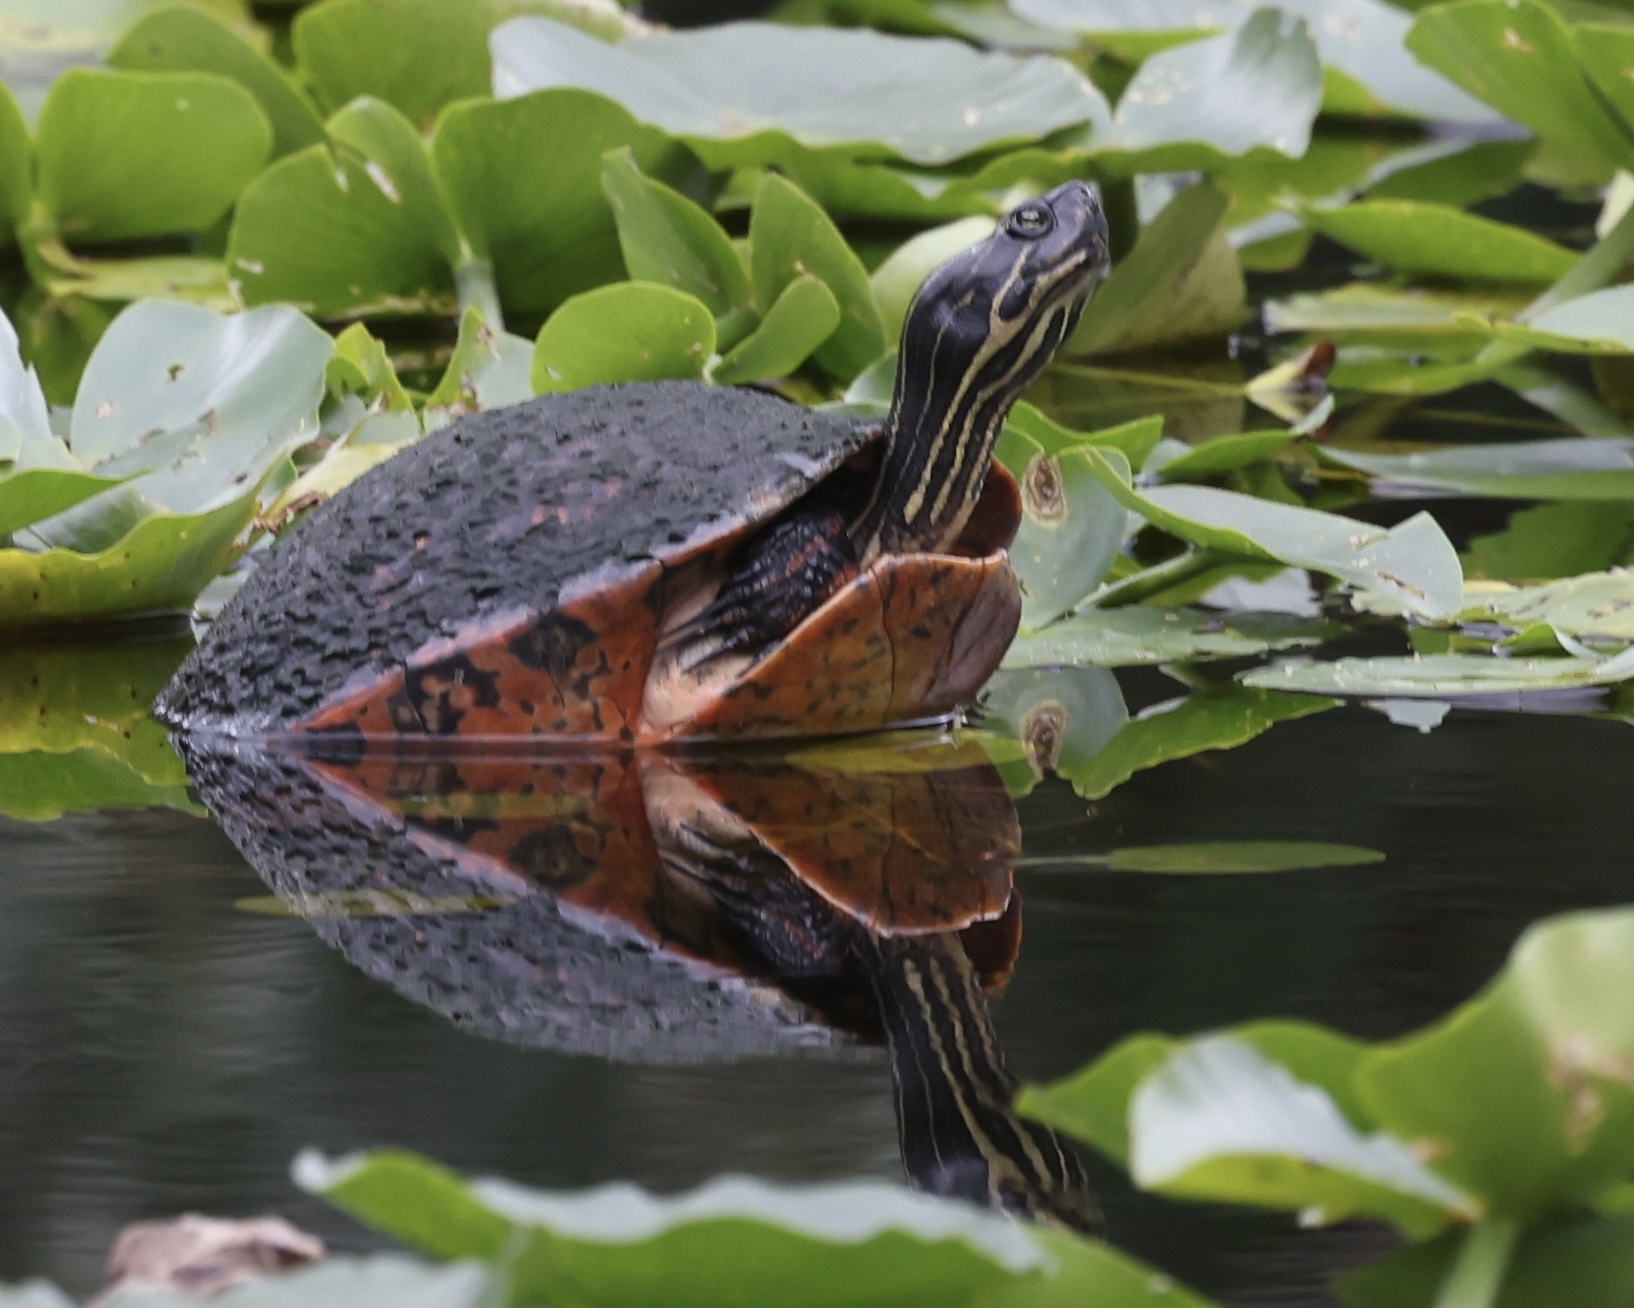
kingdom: Animalia
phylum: Chordata
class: Testudines
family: Emydidae
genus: Pseudemys
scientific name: Pseudemys nelsoni
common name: Florida red-bellied turtle
